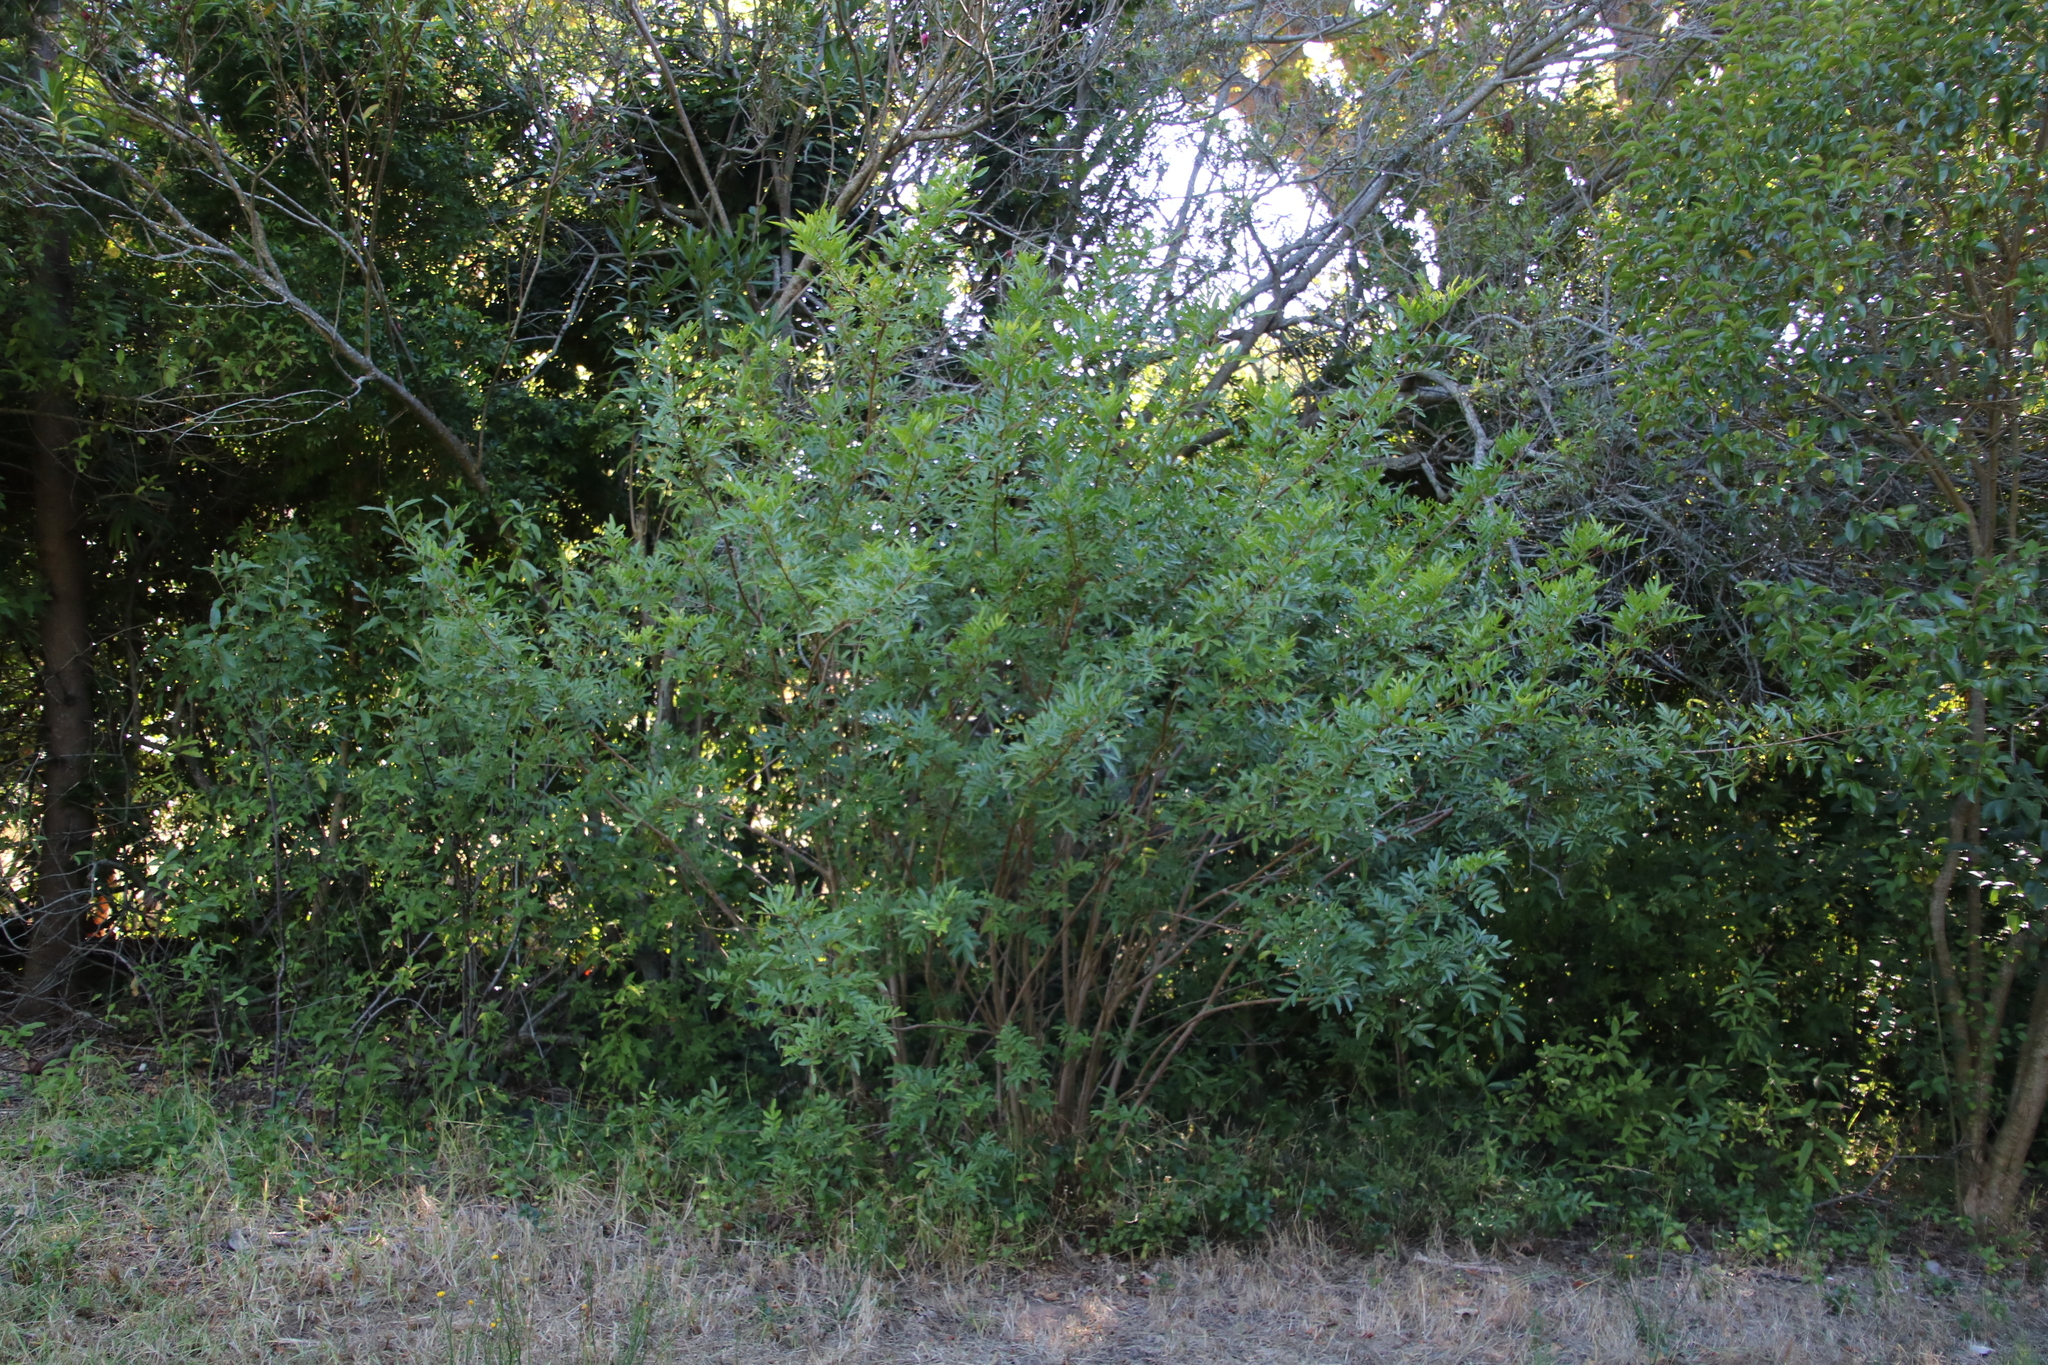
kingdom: Plantae
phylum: Tracheophyta
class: Magnoliopsida
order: Sapindales
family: Anacardiaceae
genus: Schinus
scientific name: Schinus terebinthifolia
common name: Brazilian peppertree
